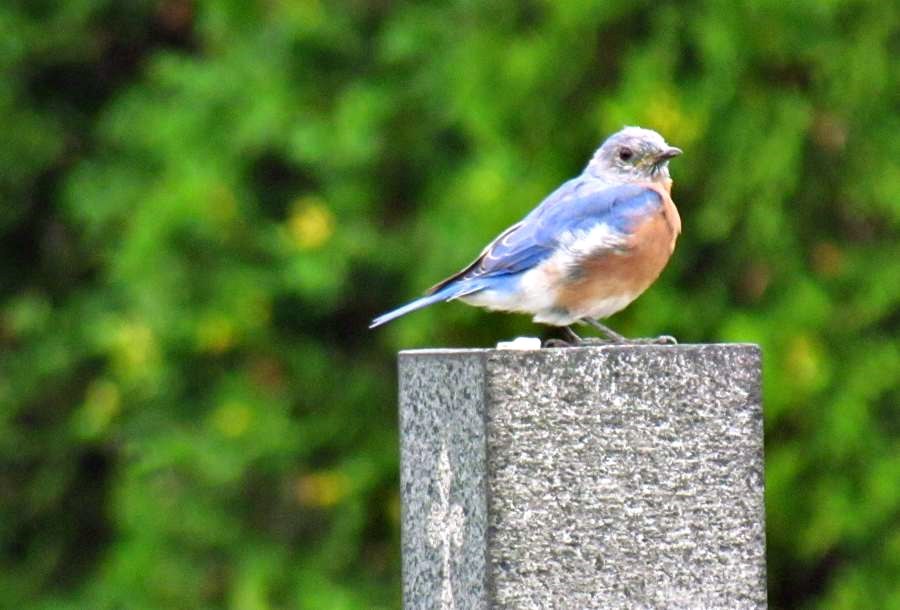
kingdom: Animalia
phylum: Chordata
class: Aves
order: Passeriformes
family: Turdidae
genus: Sialia
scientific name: Sialia sialis
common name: Eastern bluebird
